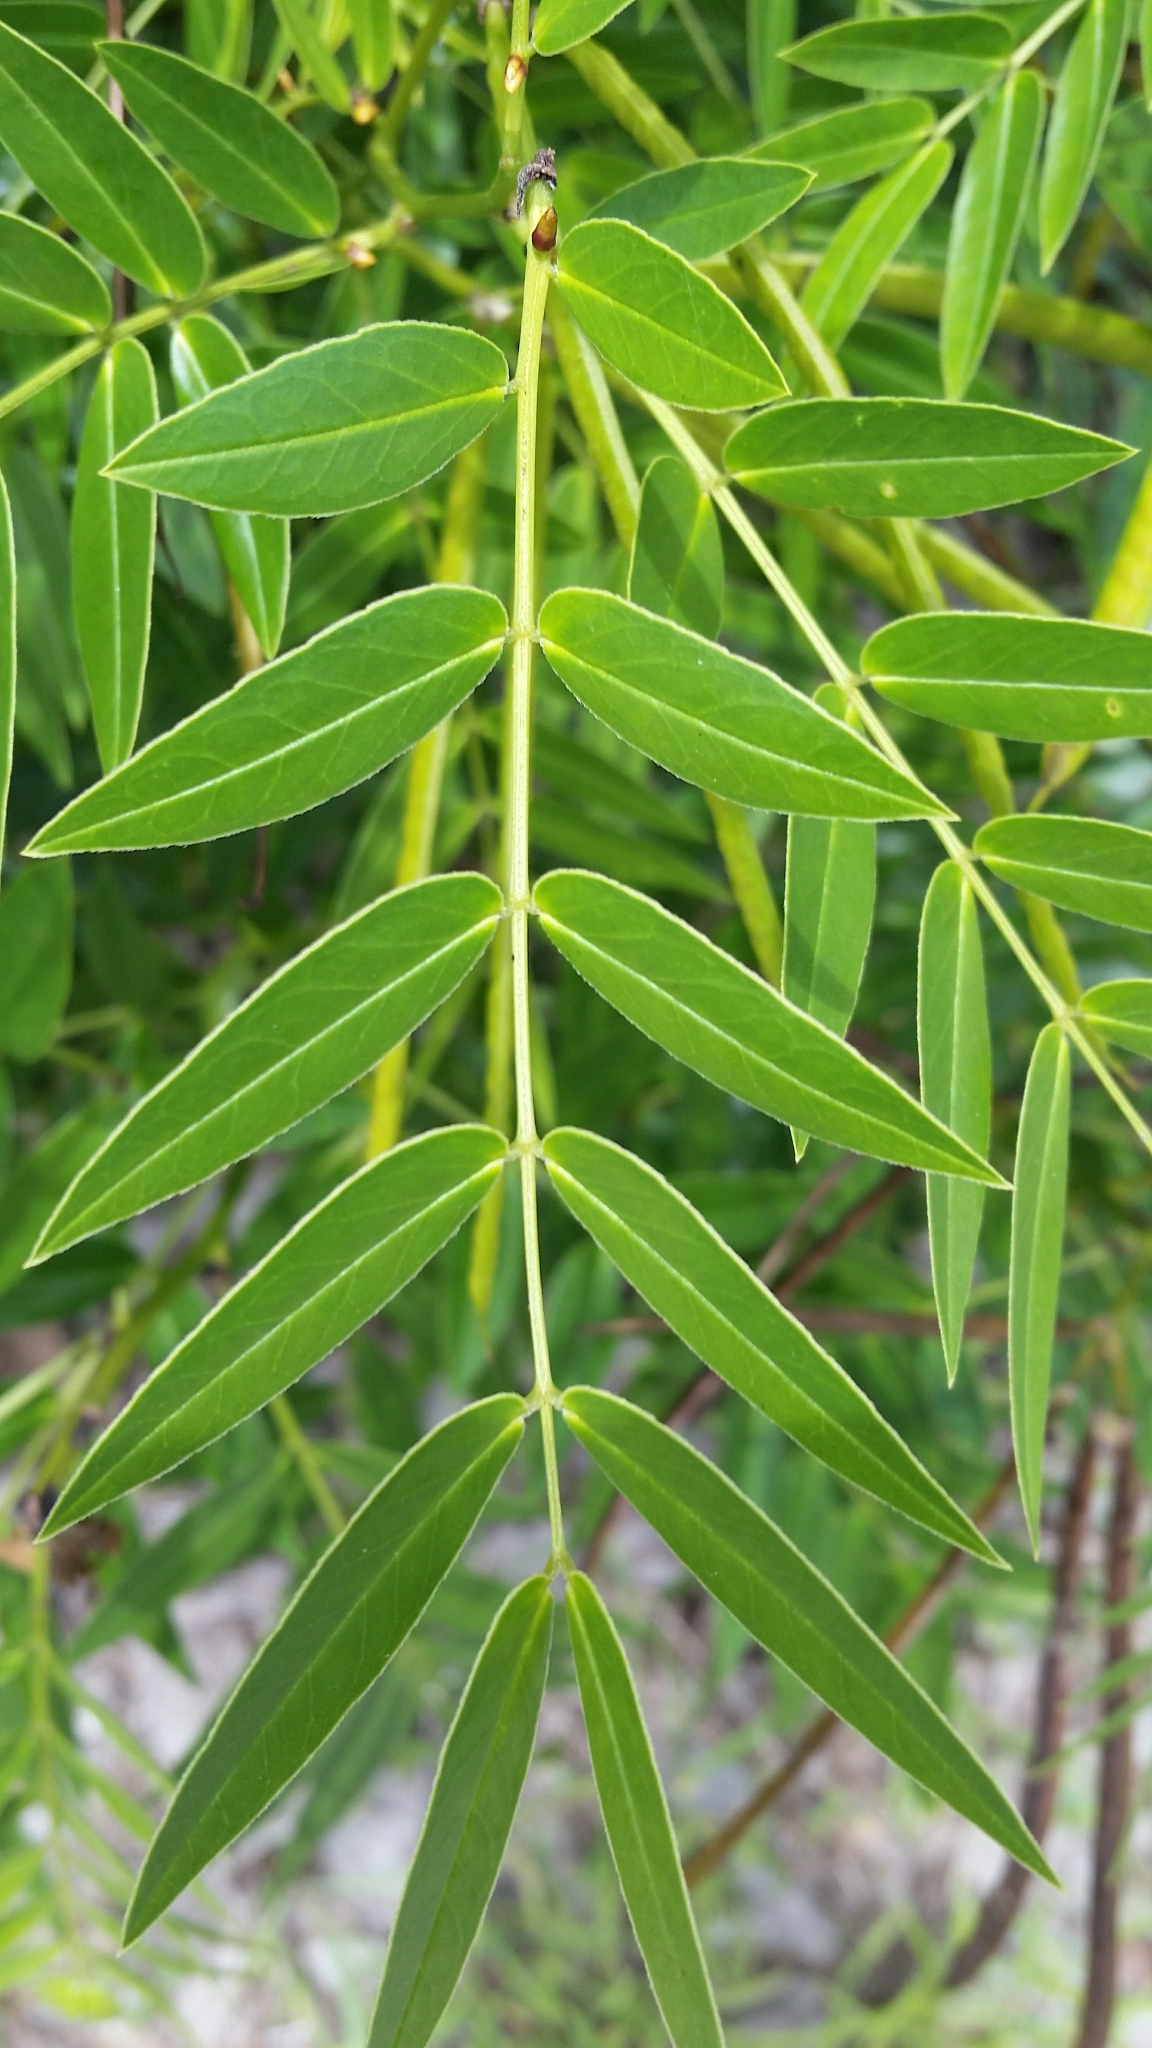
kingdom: Plantae
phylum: Tracheophyta
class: Magnoliopsida
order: Fabales
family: Fabaceae
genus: Senna
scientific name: Senna ligustrina
